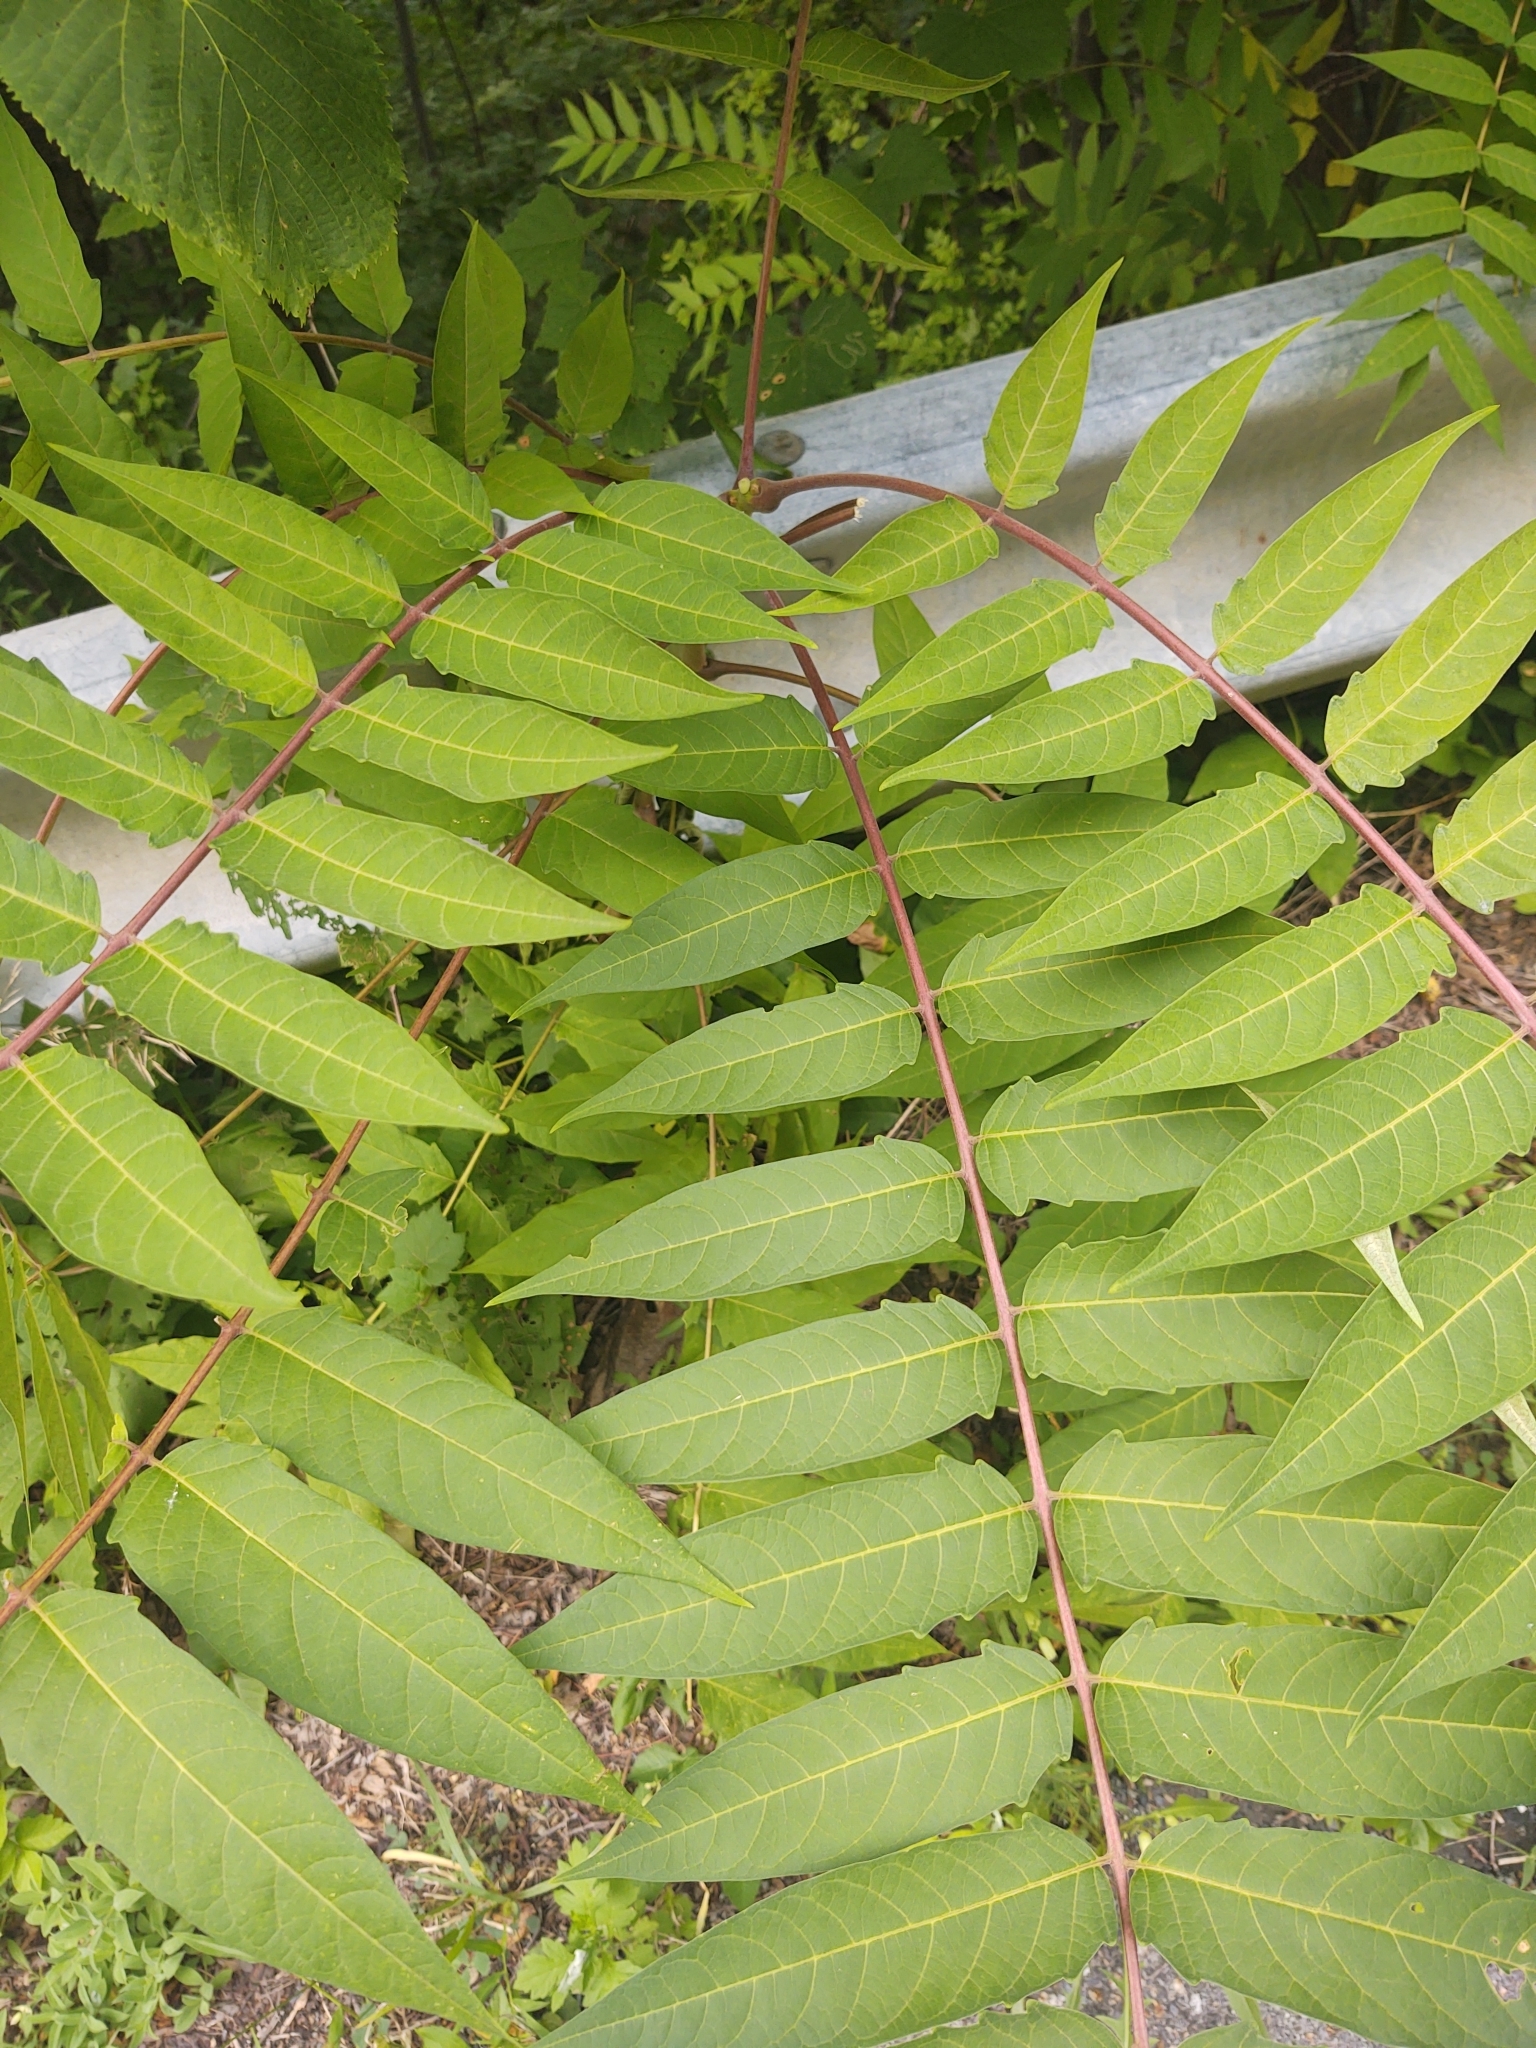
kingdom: Plantae
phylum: Tracheophyta
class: Magnoliopsida
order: Sapindales
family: Simaroubaceae
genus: Ailanthus
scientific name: Ailanthus altissima
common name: Tree-of-heaven
